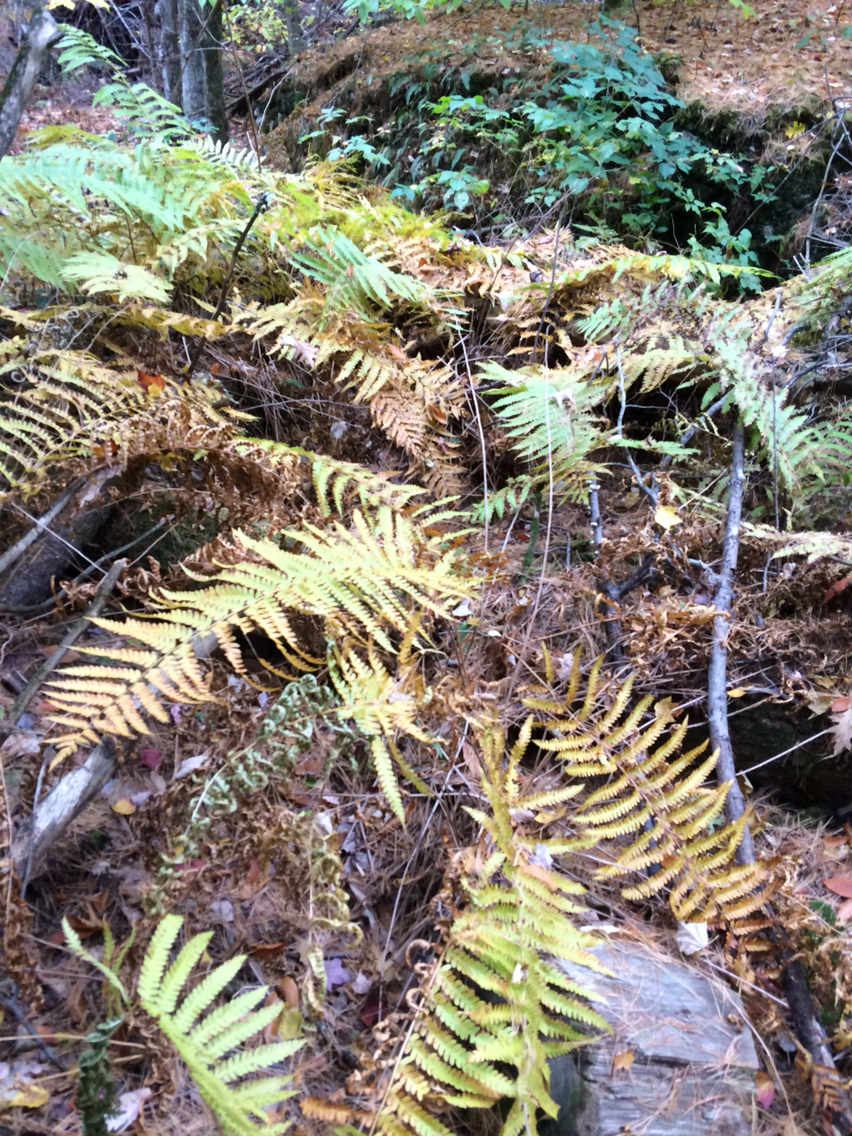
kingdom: Plantae
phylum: Tracheophyta
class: Polypodiopsida
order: Osmundales
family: Osmundaceae
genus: Osmundastrum
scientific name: Osmundastrum cinnamomeum
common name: Cinnamon fern
